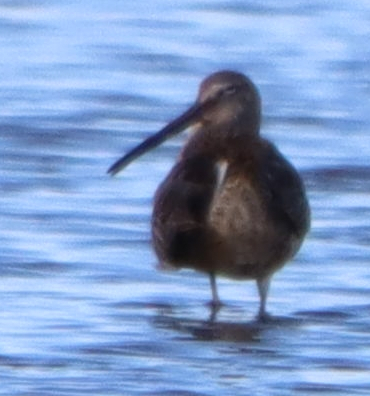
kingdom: Animalia
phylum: Chordata
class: Aves
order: Charadriiformes
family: Scolopacidae
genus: Limnodromus
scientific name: Limnodromus scolopaceus
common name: Long-billed dowitcher
